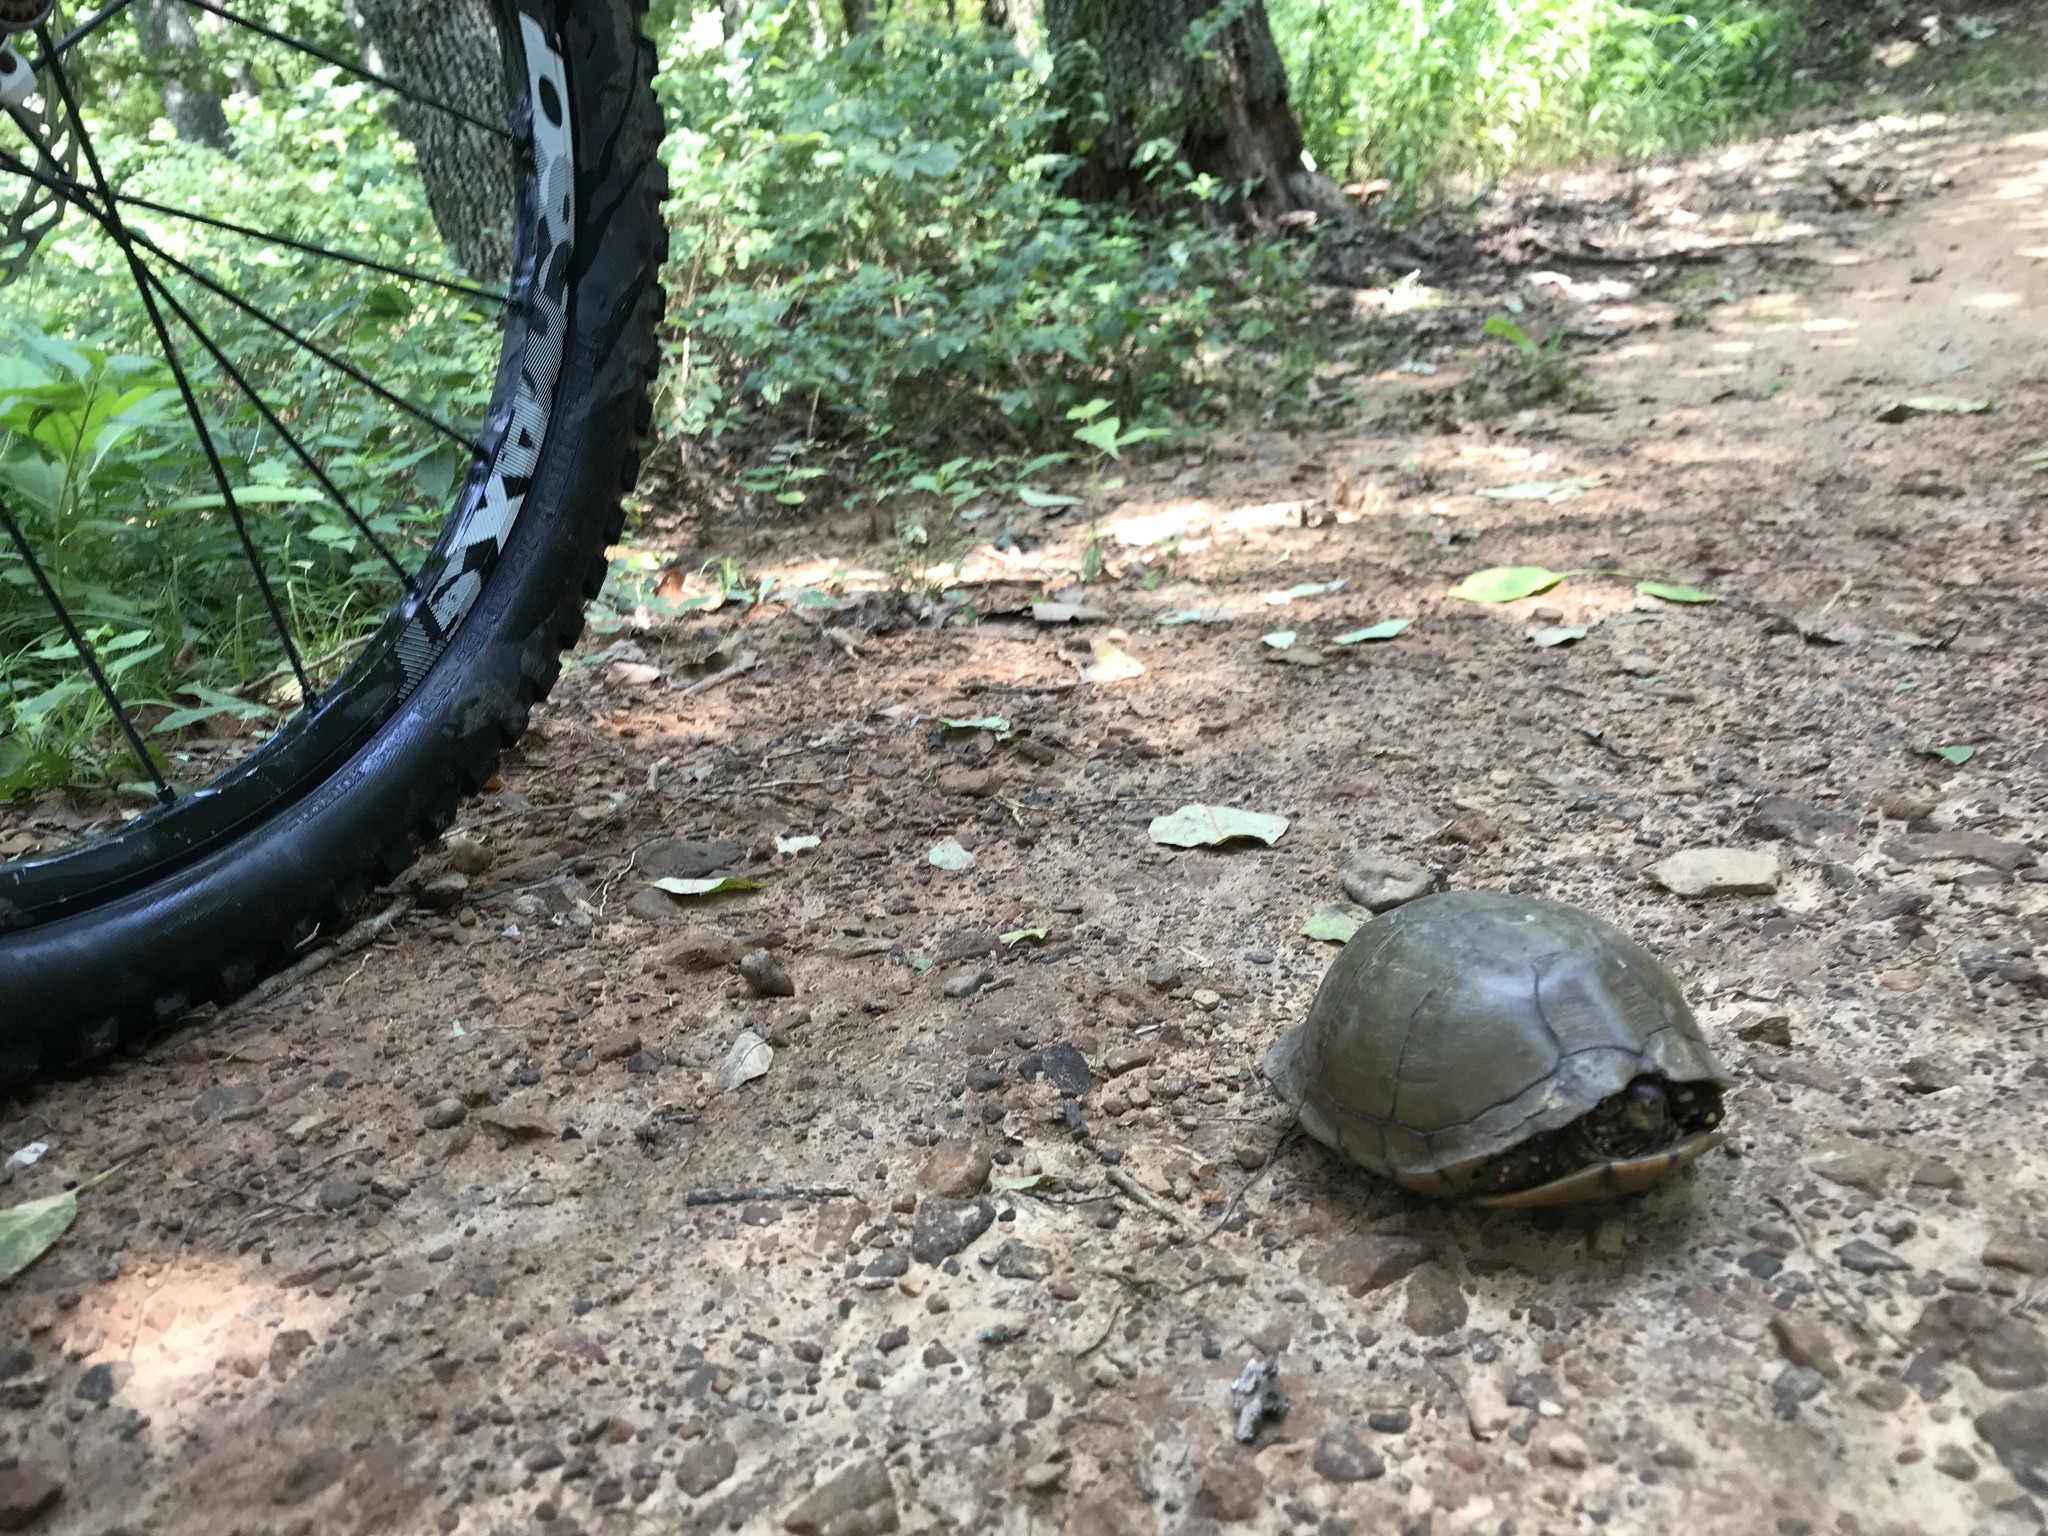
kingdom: Animalia
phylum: Chordata
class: Testudines
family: Emydidae
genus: Terrapene
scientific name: Terrapene carolina
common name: Common box turtle
